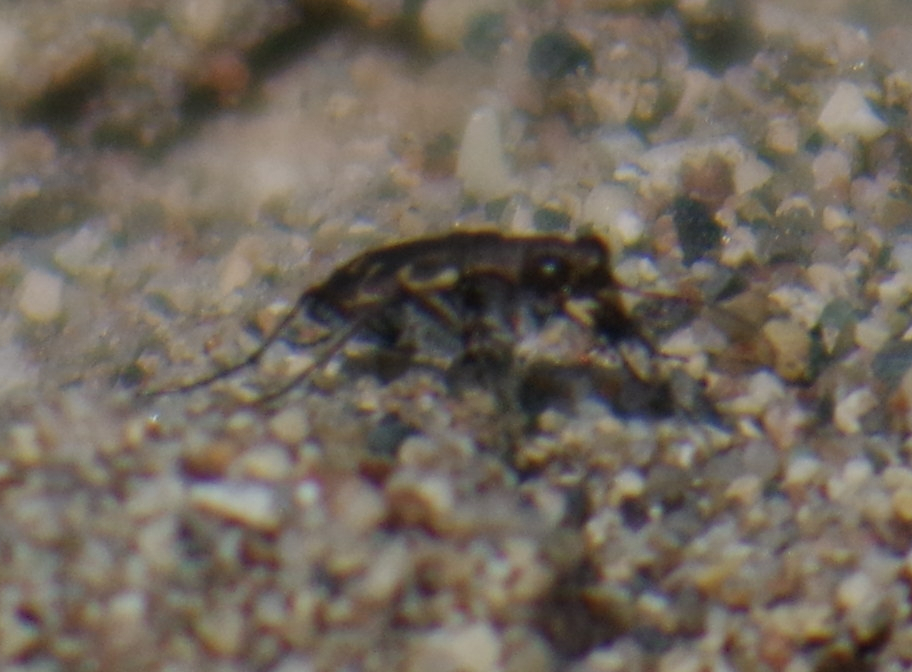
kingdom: Animalia
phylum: Arthropoda
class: Insecta
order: Coleoptera
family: Carabidae
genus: Cicindela
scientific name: Cicindela repanda
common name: Bronzed tiger beetle
